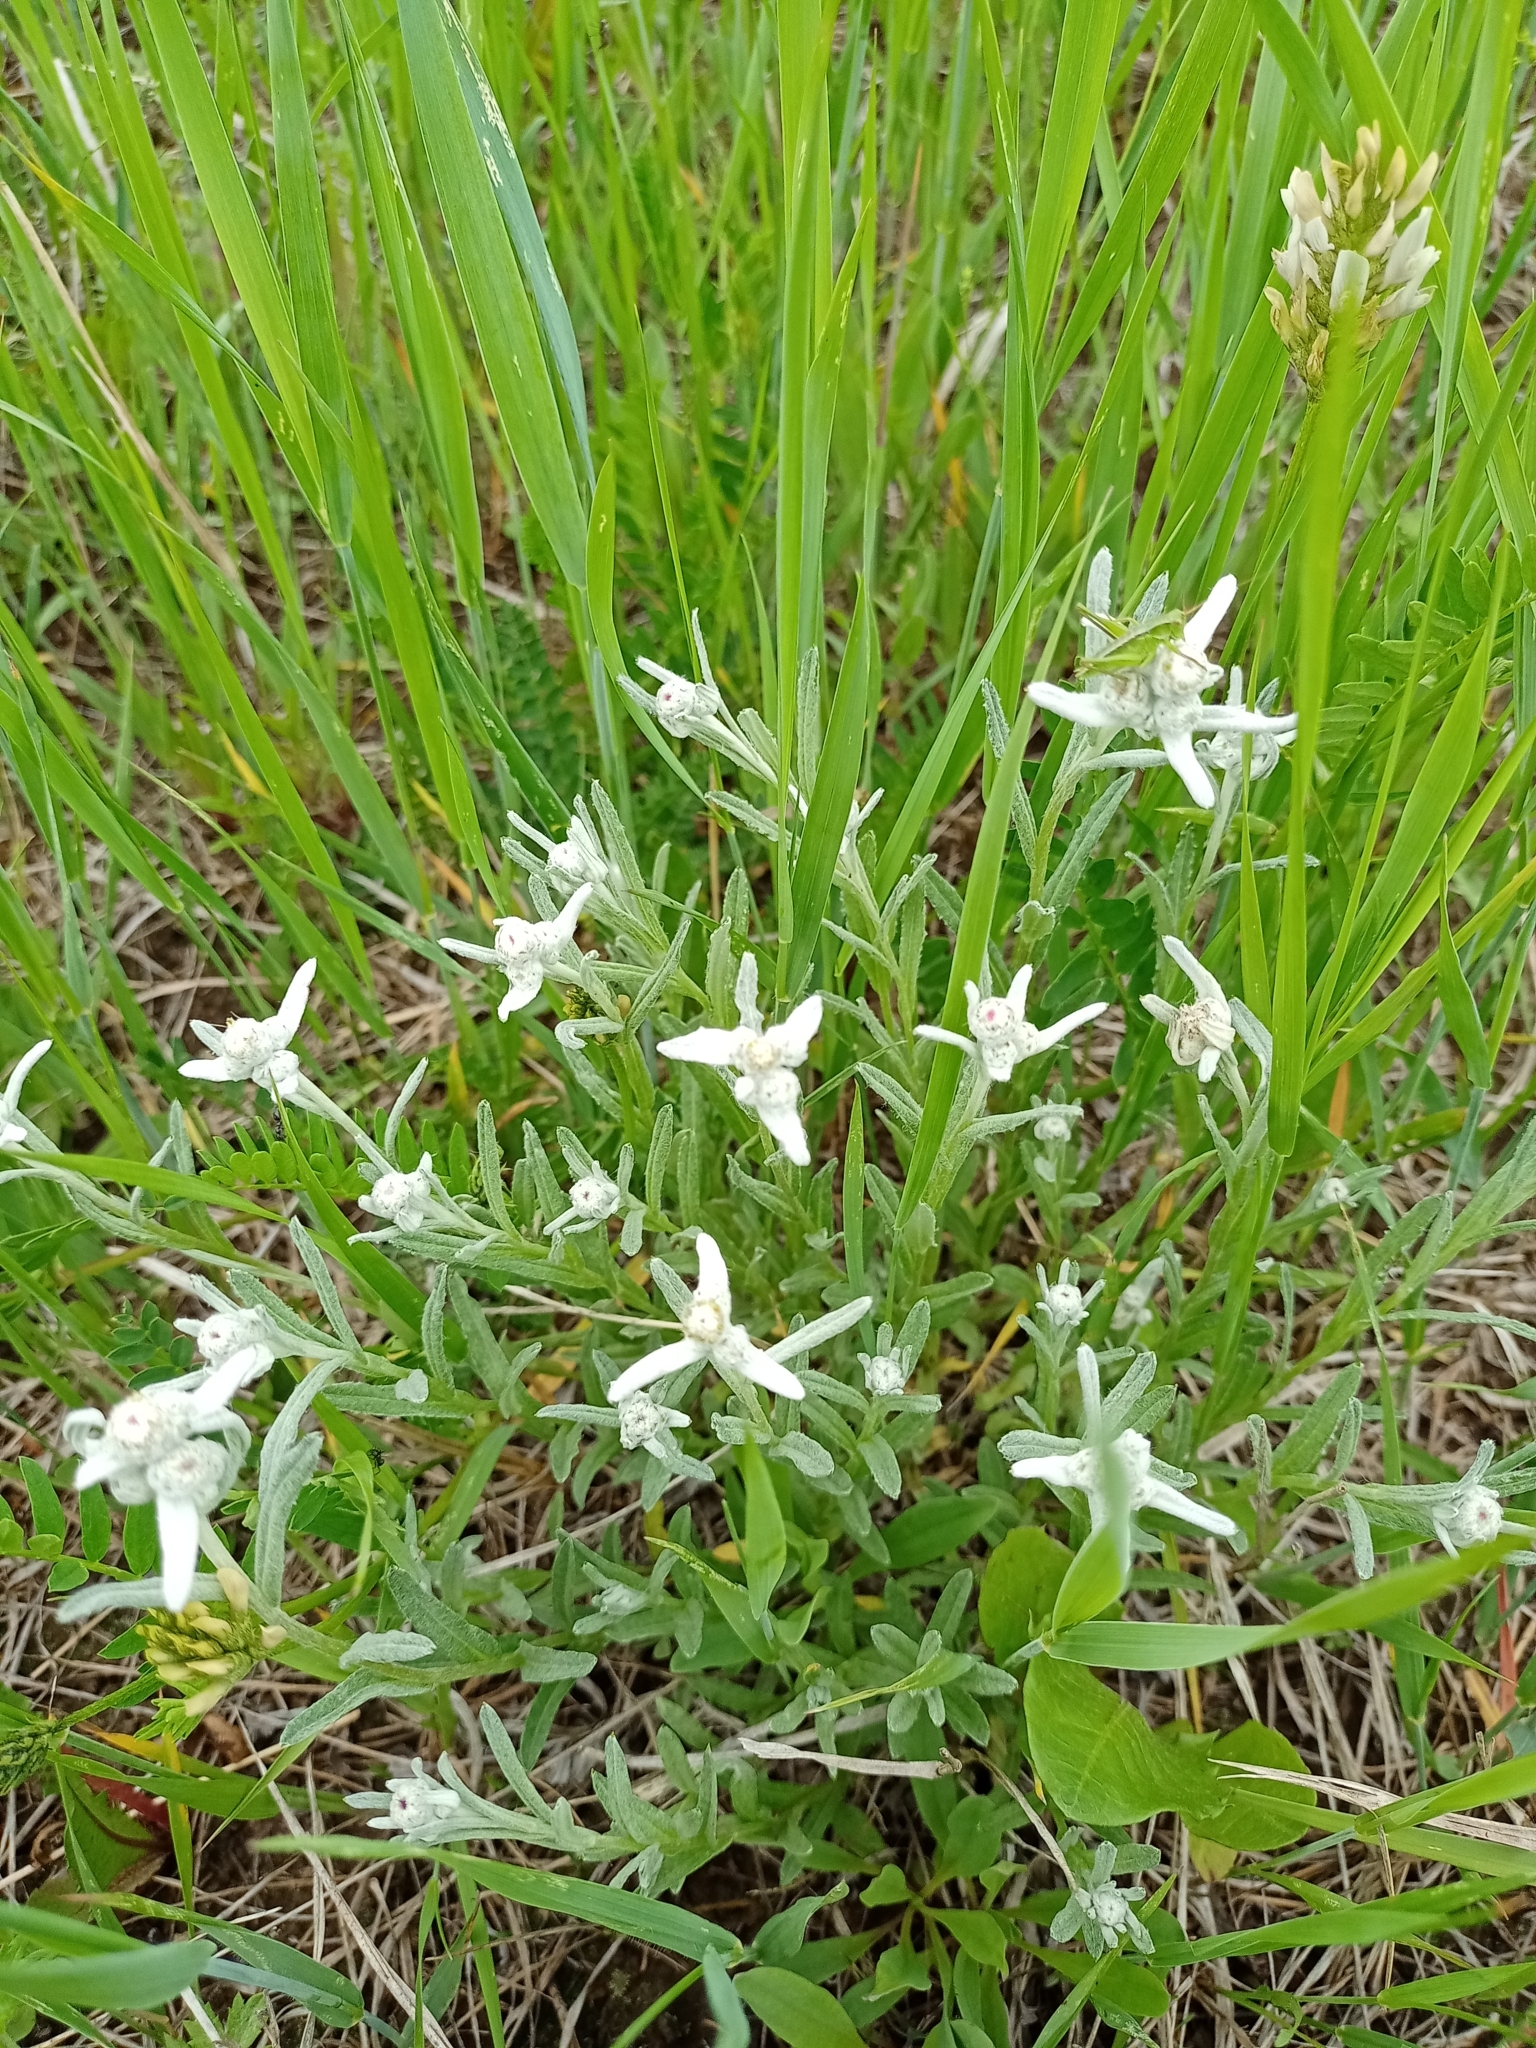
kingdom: Plantae
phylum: Tracheophyta
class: Magnoliopsida
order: Asterales
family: Asteraceae
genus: Achillea
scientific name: Achillea asiatica
